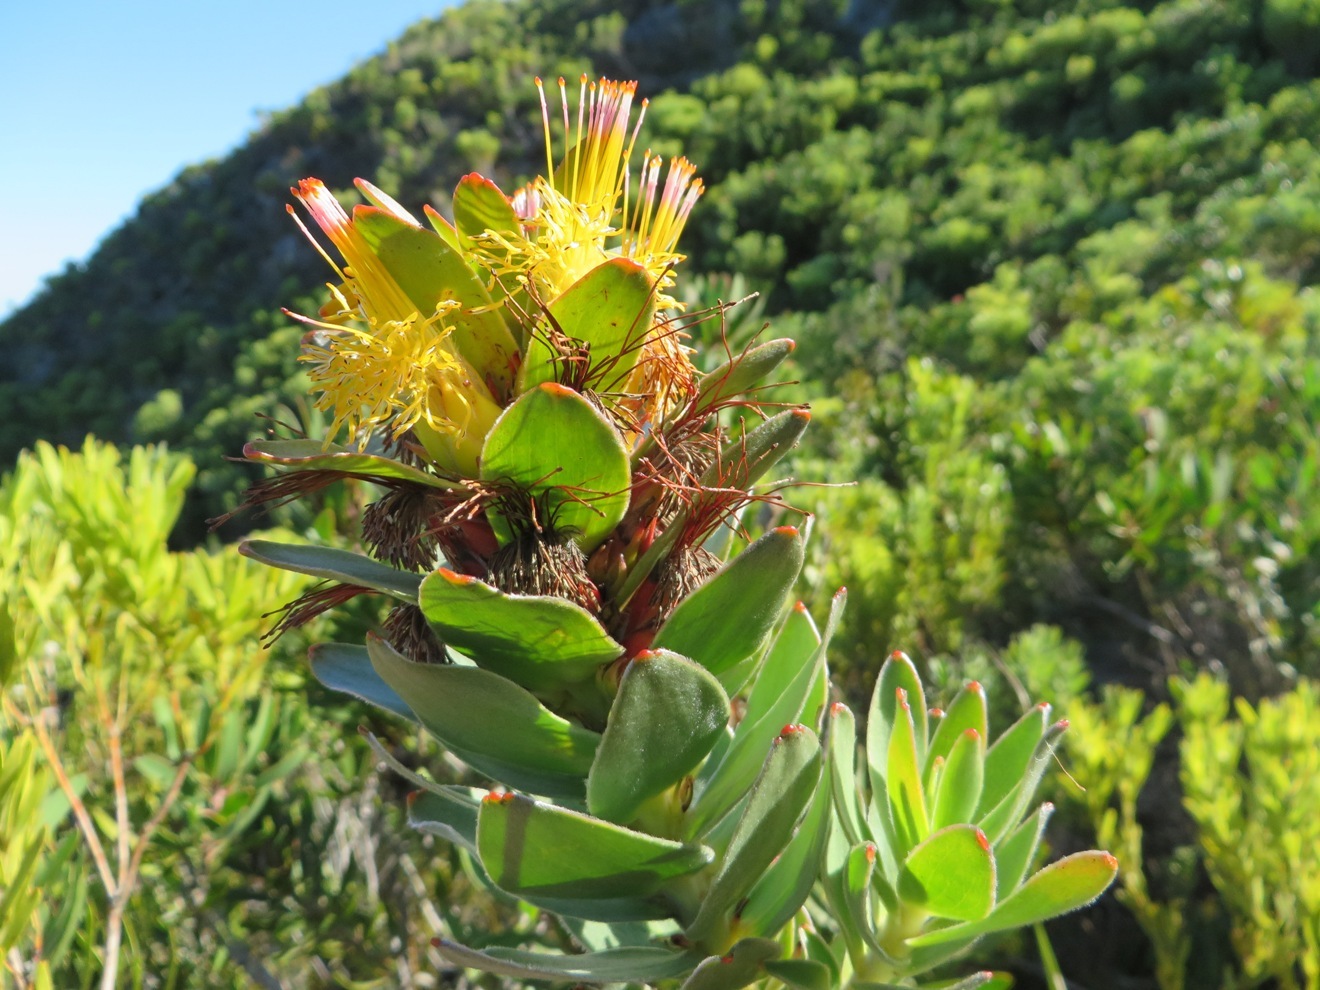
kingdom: Plantae
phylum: Tracheophyta
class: Magnoliopsida
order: Proteales
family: Proteaceae
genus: Mimetes
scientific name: Mimetes saxatilis
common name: Limestone pagoda
